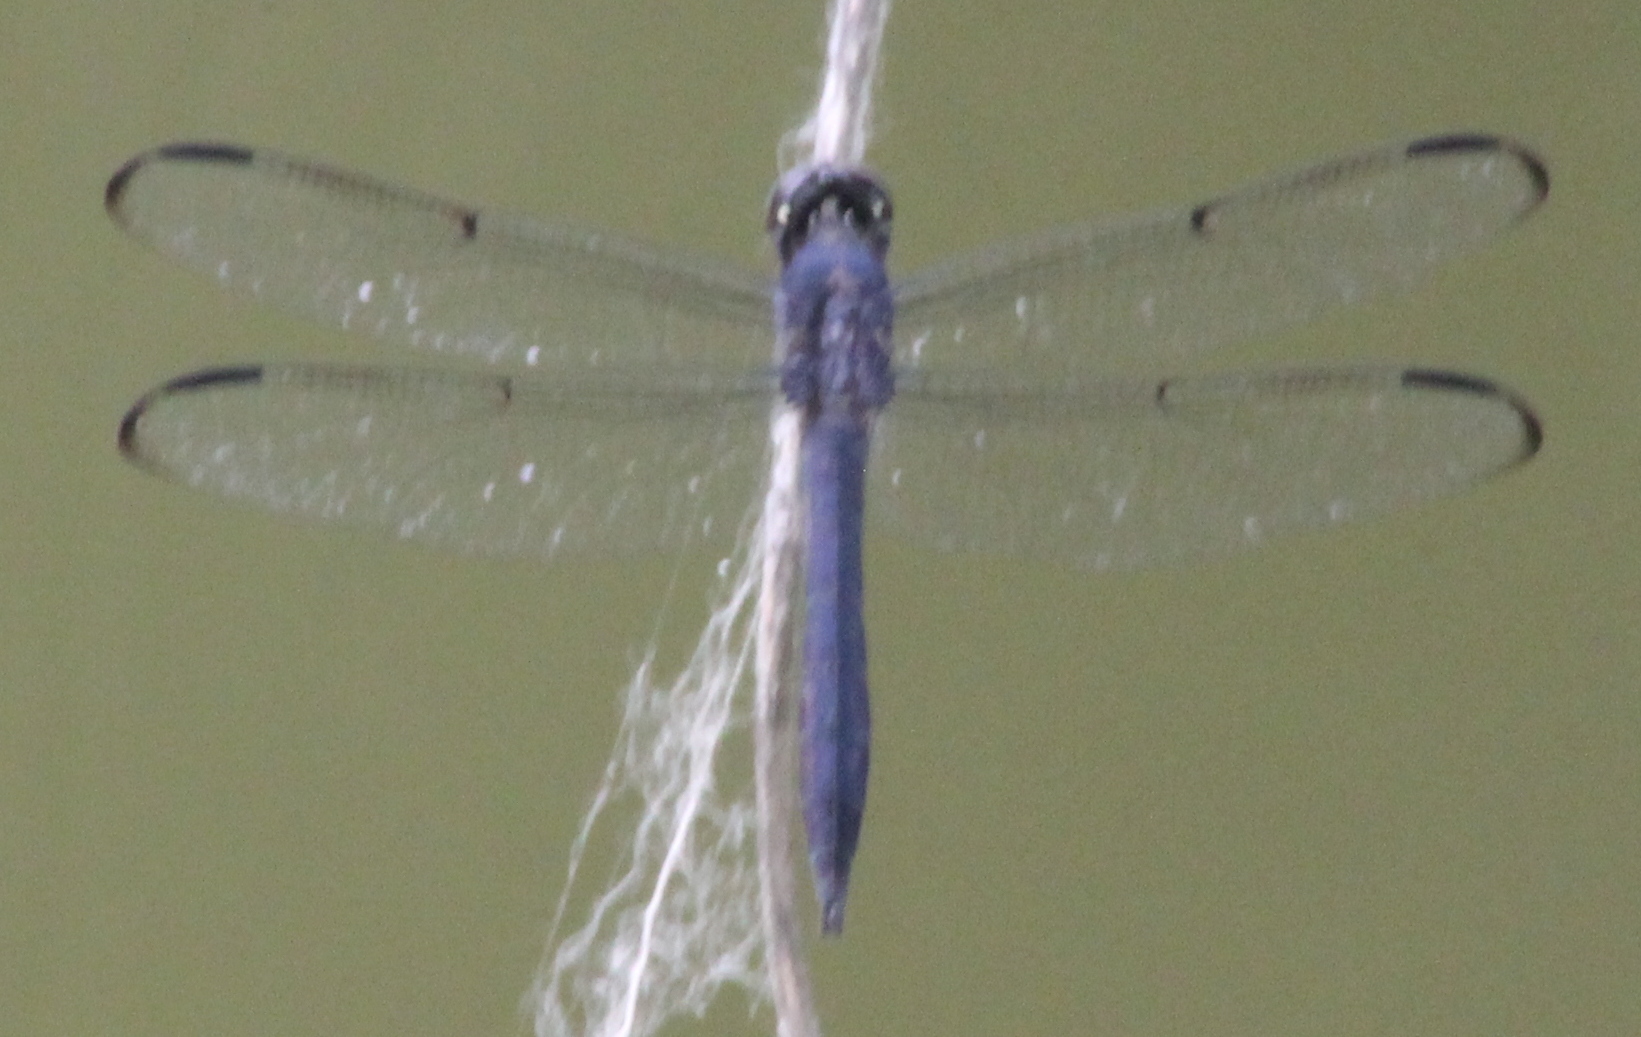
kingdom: Animalia
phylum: Arthropoda
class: Insecta
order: Odonata
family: Libellulidae
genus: Libellula
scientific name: Libellula incesta
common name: Slaty skimmer
